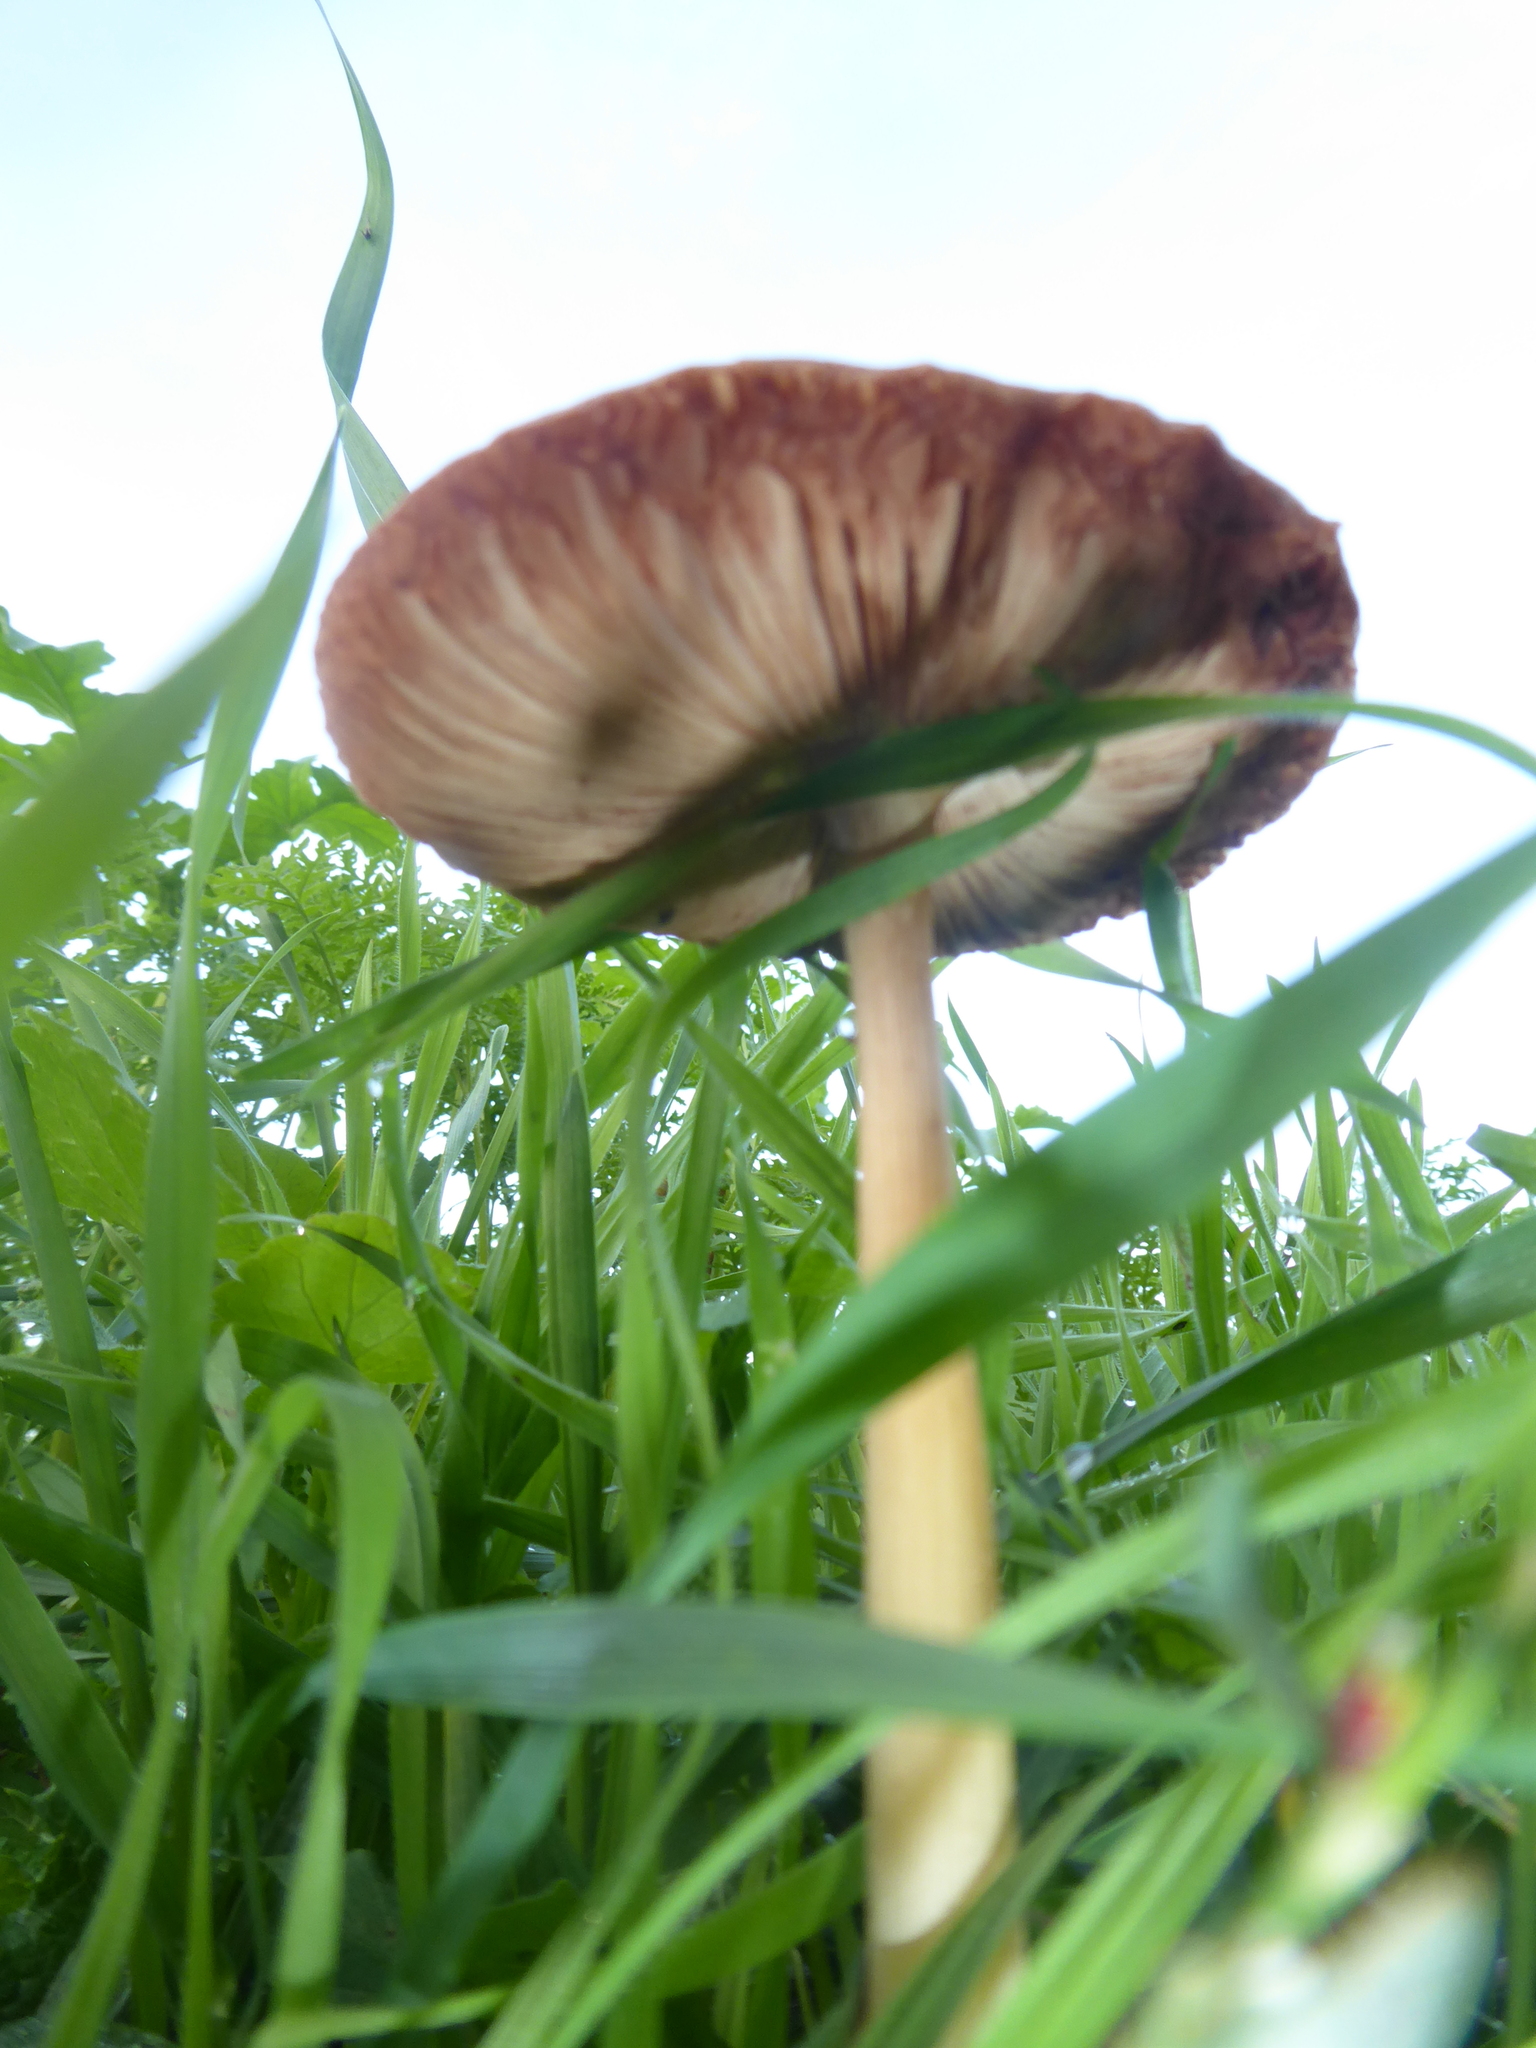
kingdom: Fungi
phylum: Basidiomycota
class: Agaricomycetes
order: Agaricales
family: Pluteaceae
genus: Volvopluteus
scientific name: Volvopluteus gloiocephalus
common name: Stubble rosegill
